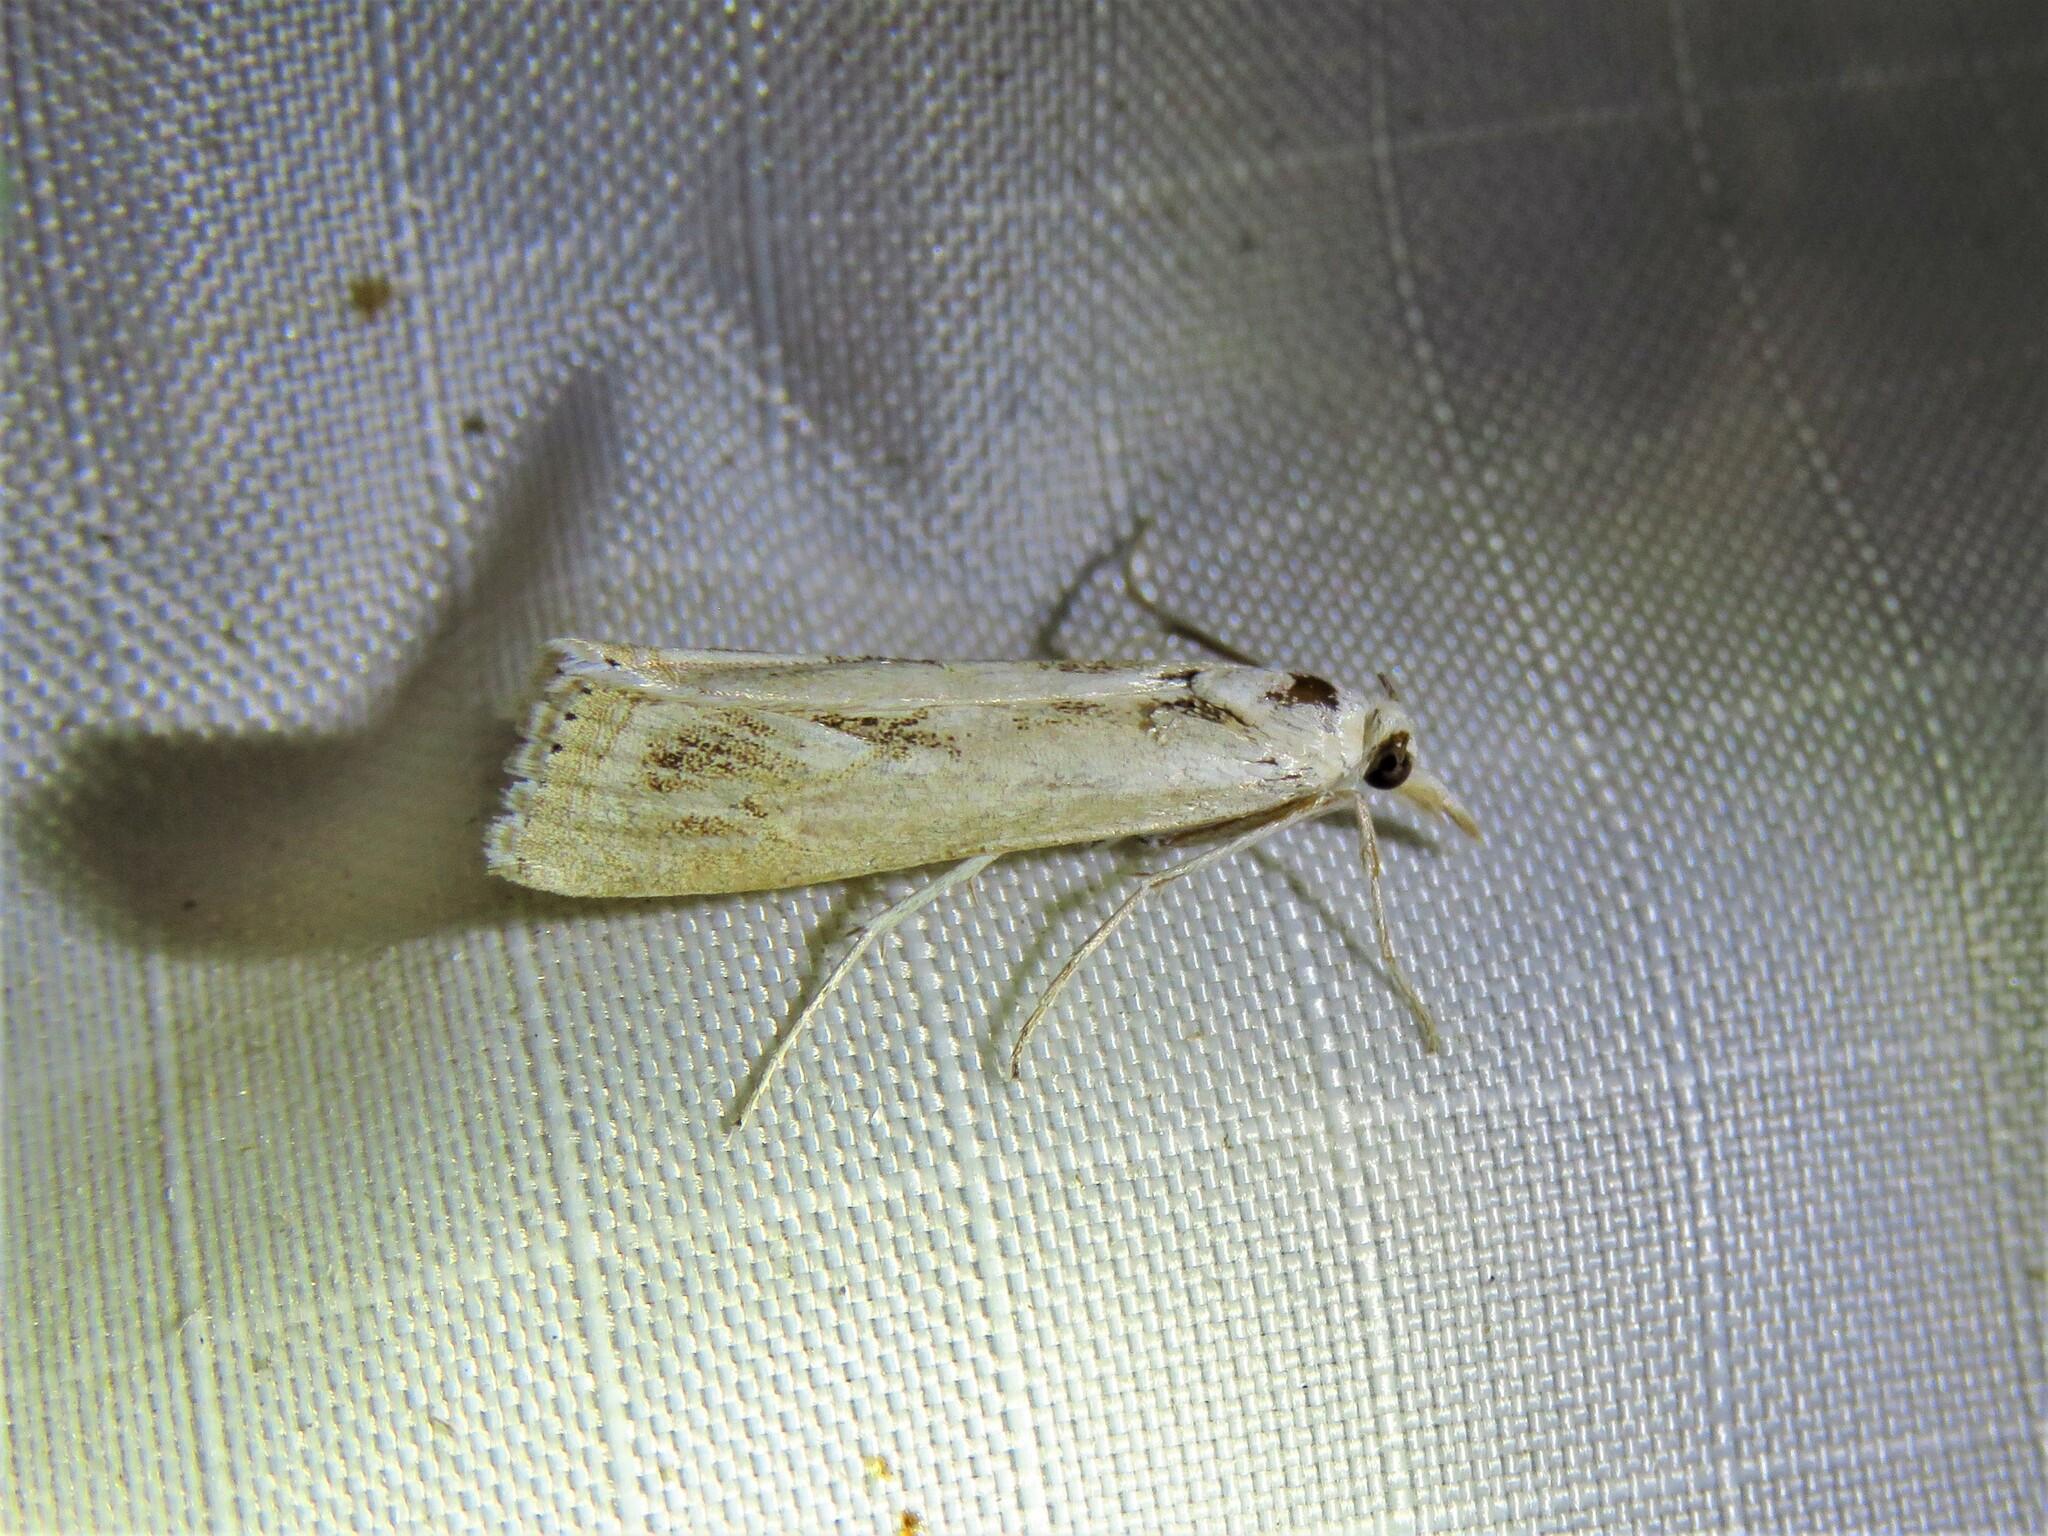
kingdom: Animalia
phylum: Arthropoda
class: Insecta
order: Lepidoptera
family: Crambidae
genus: Parapediasia
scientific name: Parapediasia hulstellus
